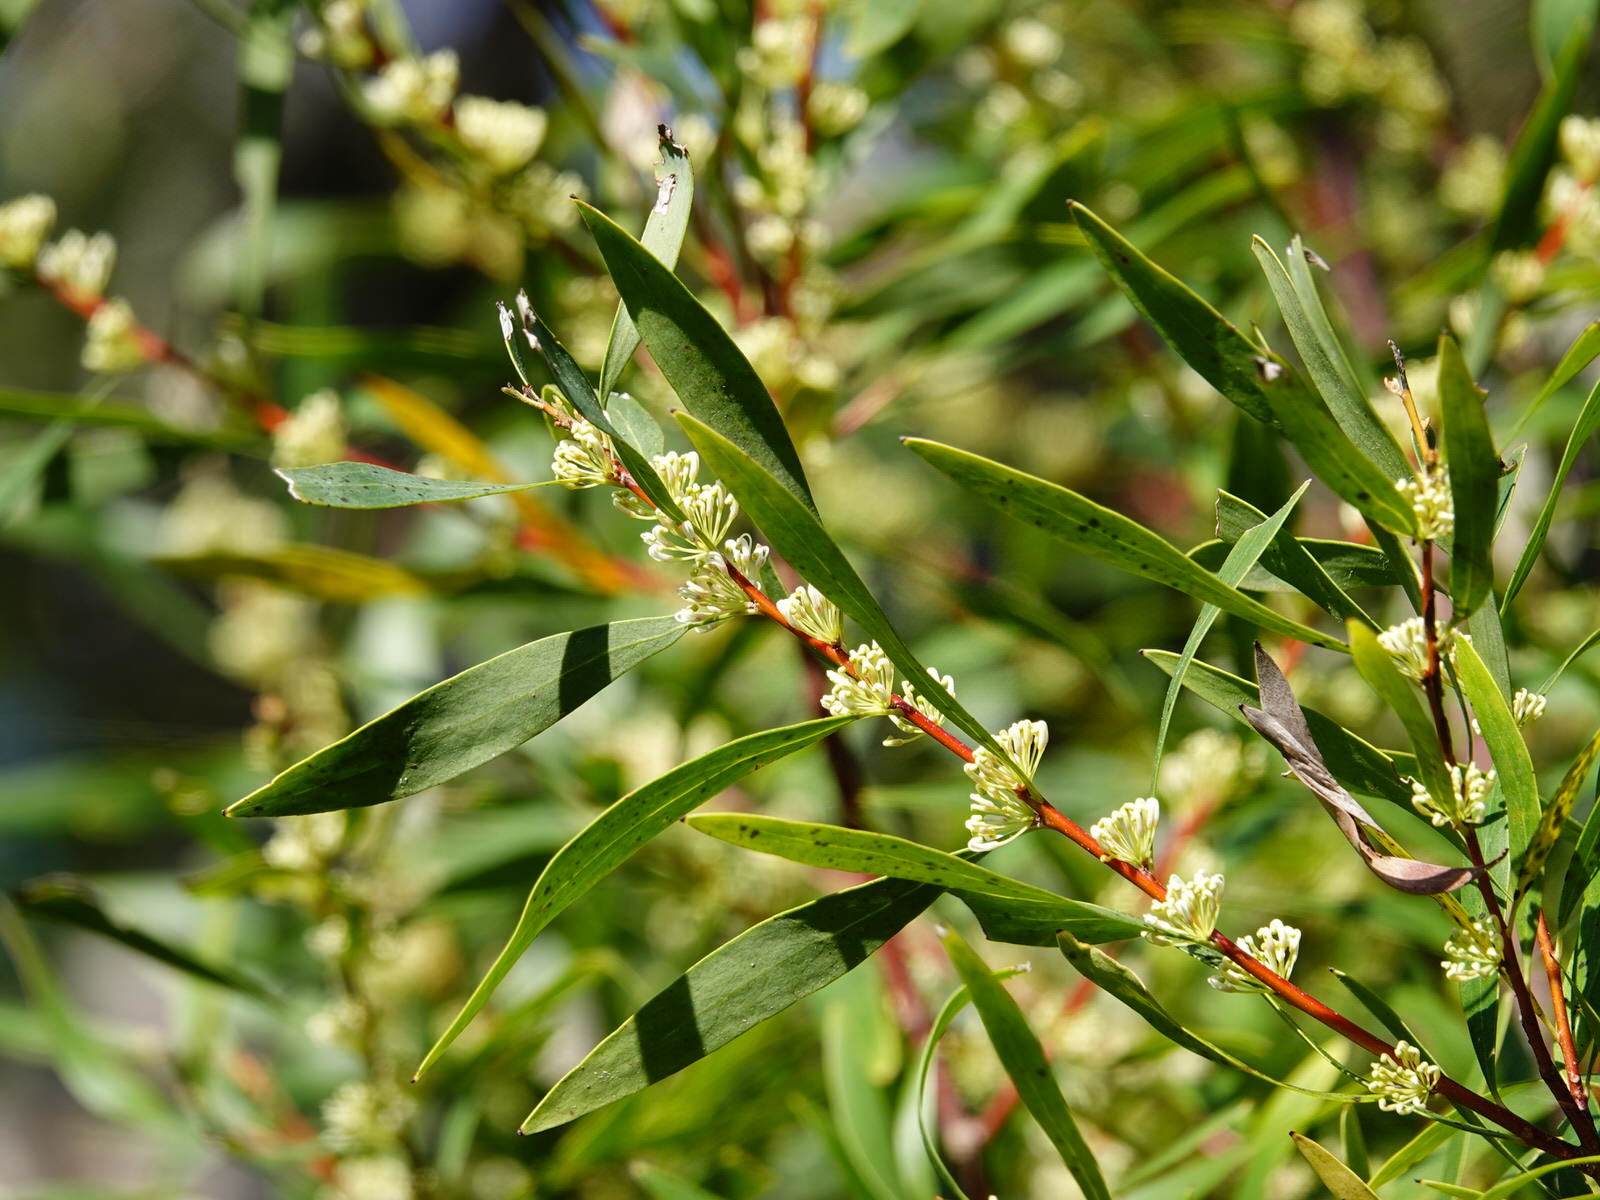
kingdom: Plantae
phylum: Tracheophyta
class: Magnoliopsida
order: Proteales
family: Proteaceae
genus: Hakea
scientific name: Hakea salicifolia
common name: Willow hakea
